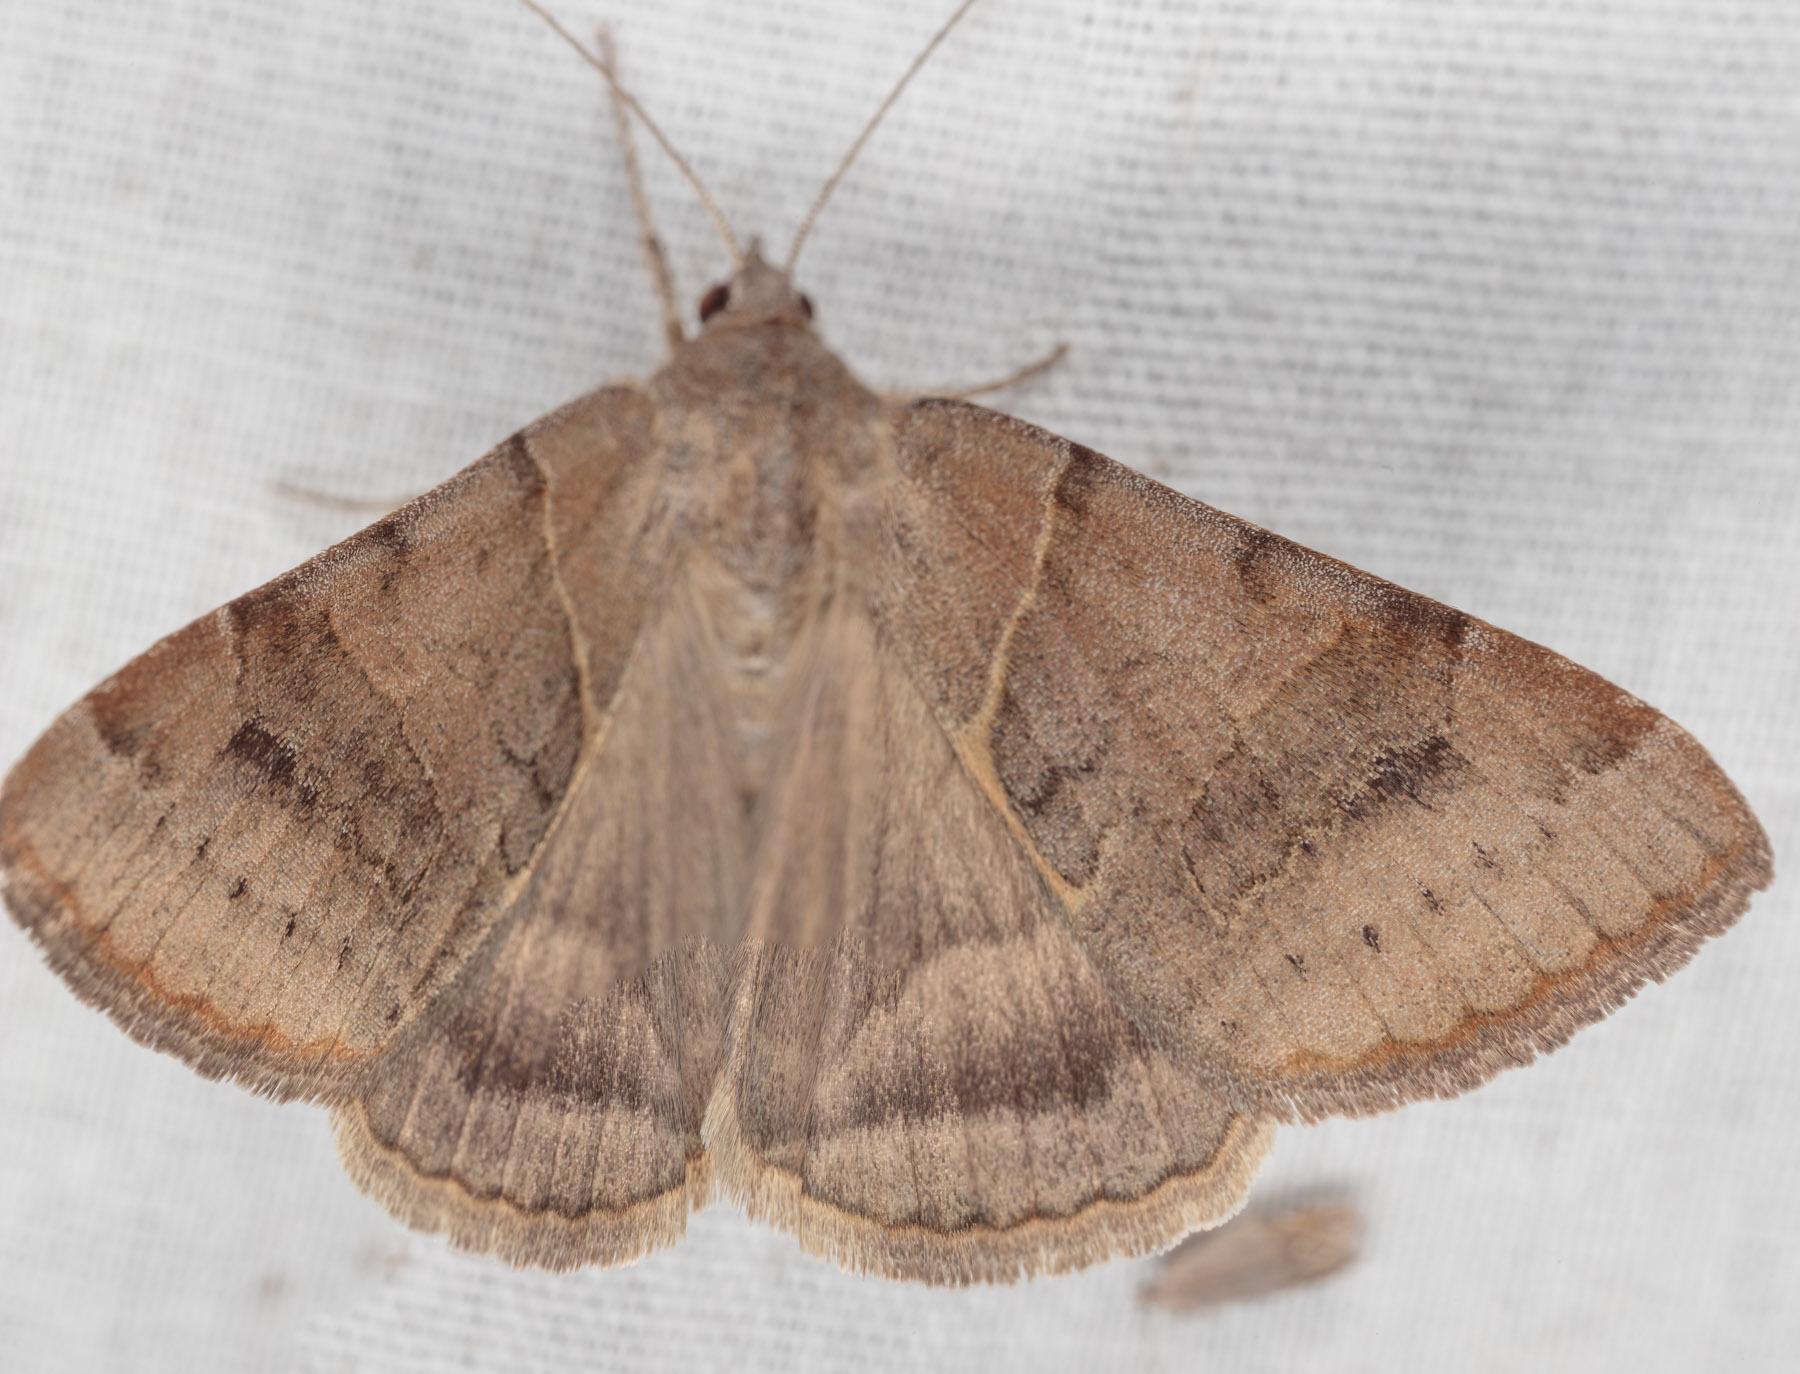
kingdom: Animalia
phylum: Arthropoda
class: Insecta
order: Lepidoptera
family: Erebidae
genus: Caenurgina
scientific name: Caenurgina erechtea
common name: Forage looper moth
